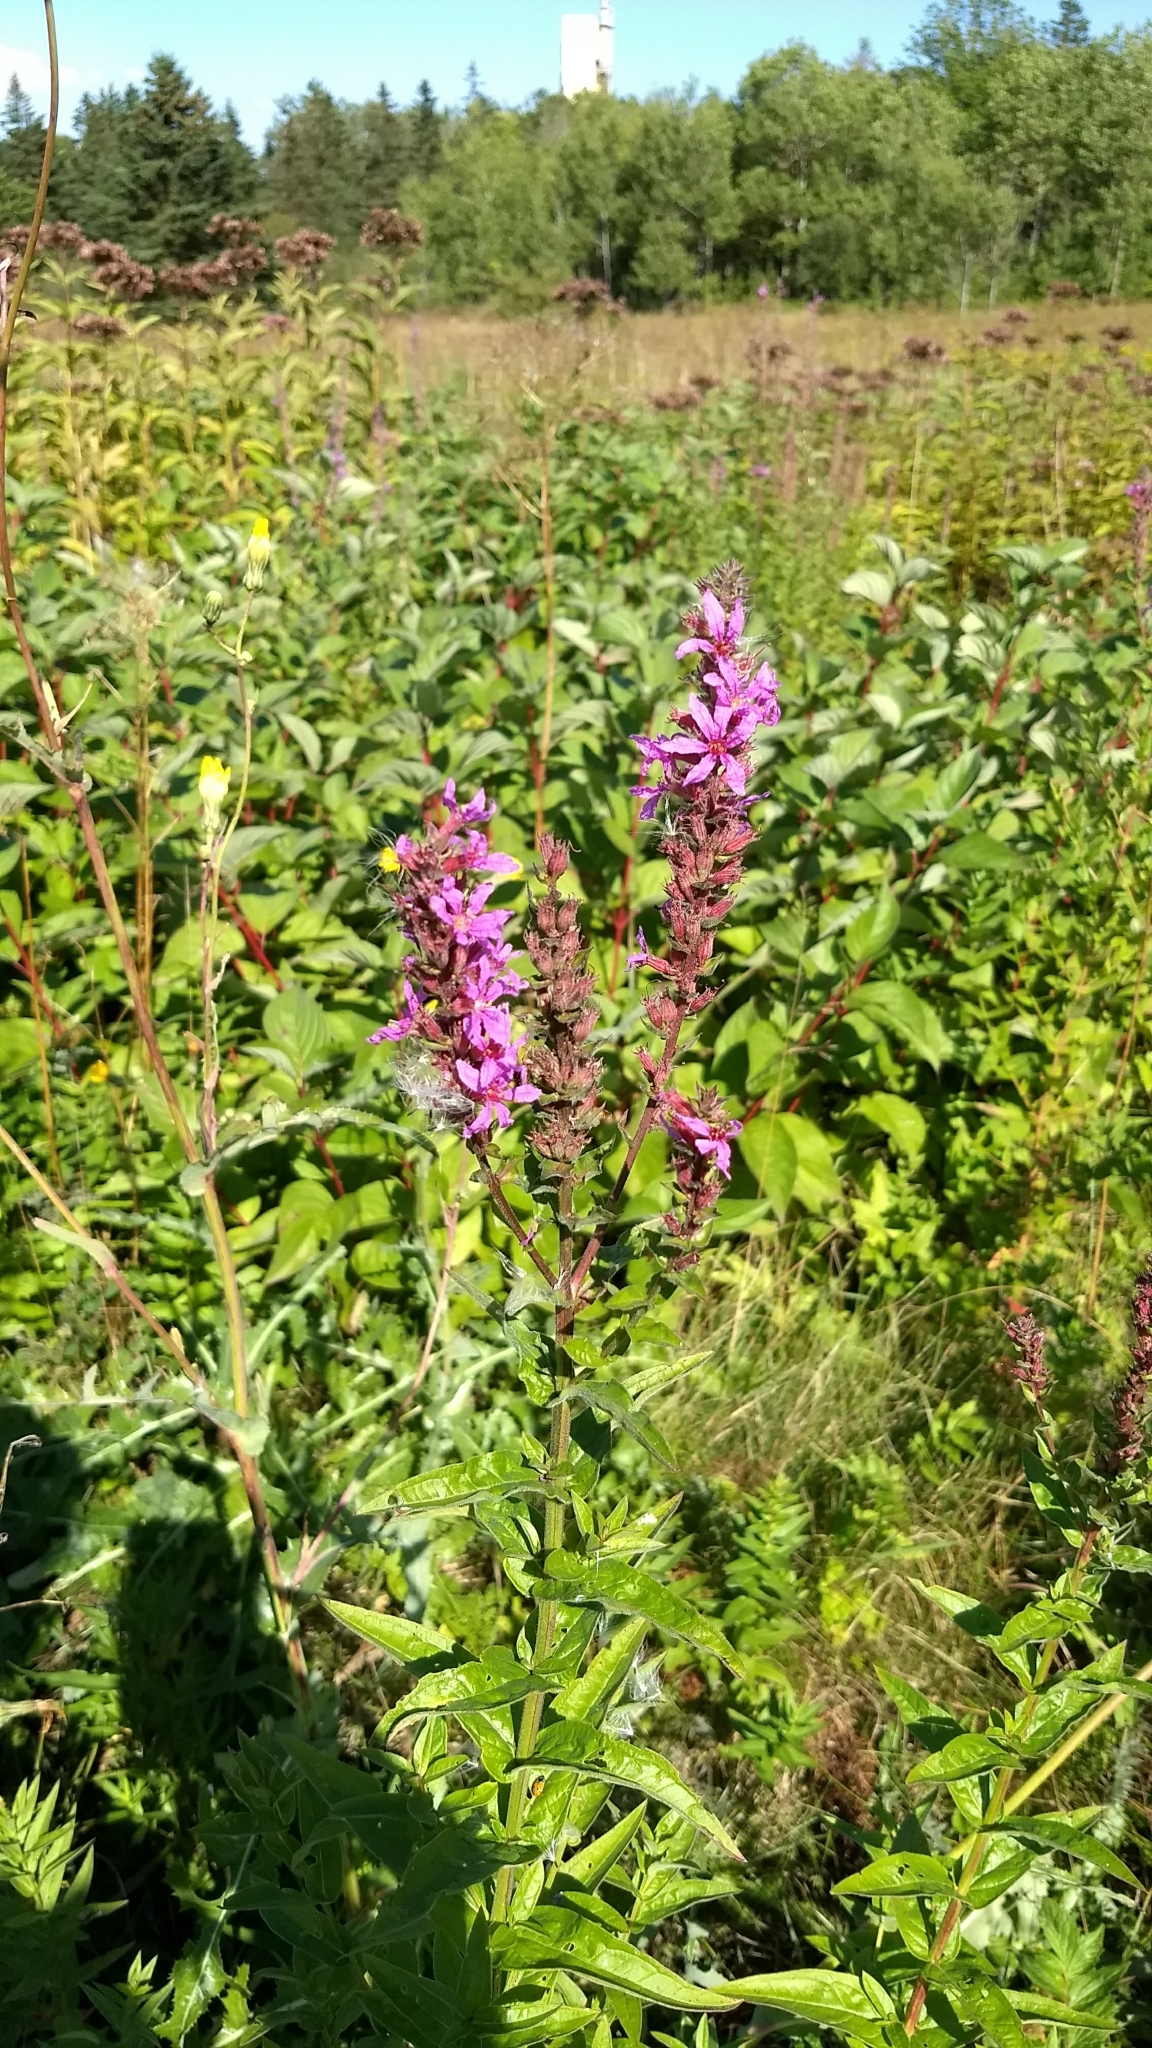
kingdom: Plantae
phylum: Tracheophyta
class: Magnoliopsida
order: Myrtales
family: Lythraceae
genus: Lythrum
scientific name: Lythrum salicaria
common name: Purple loosestrife
